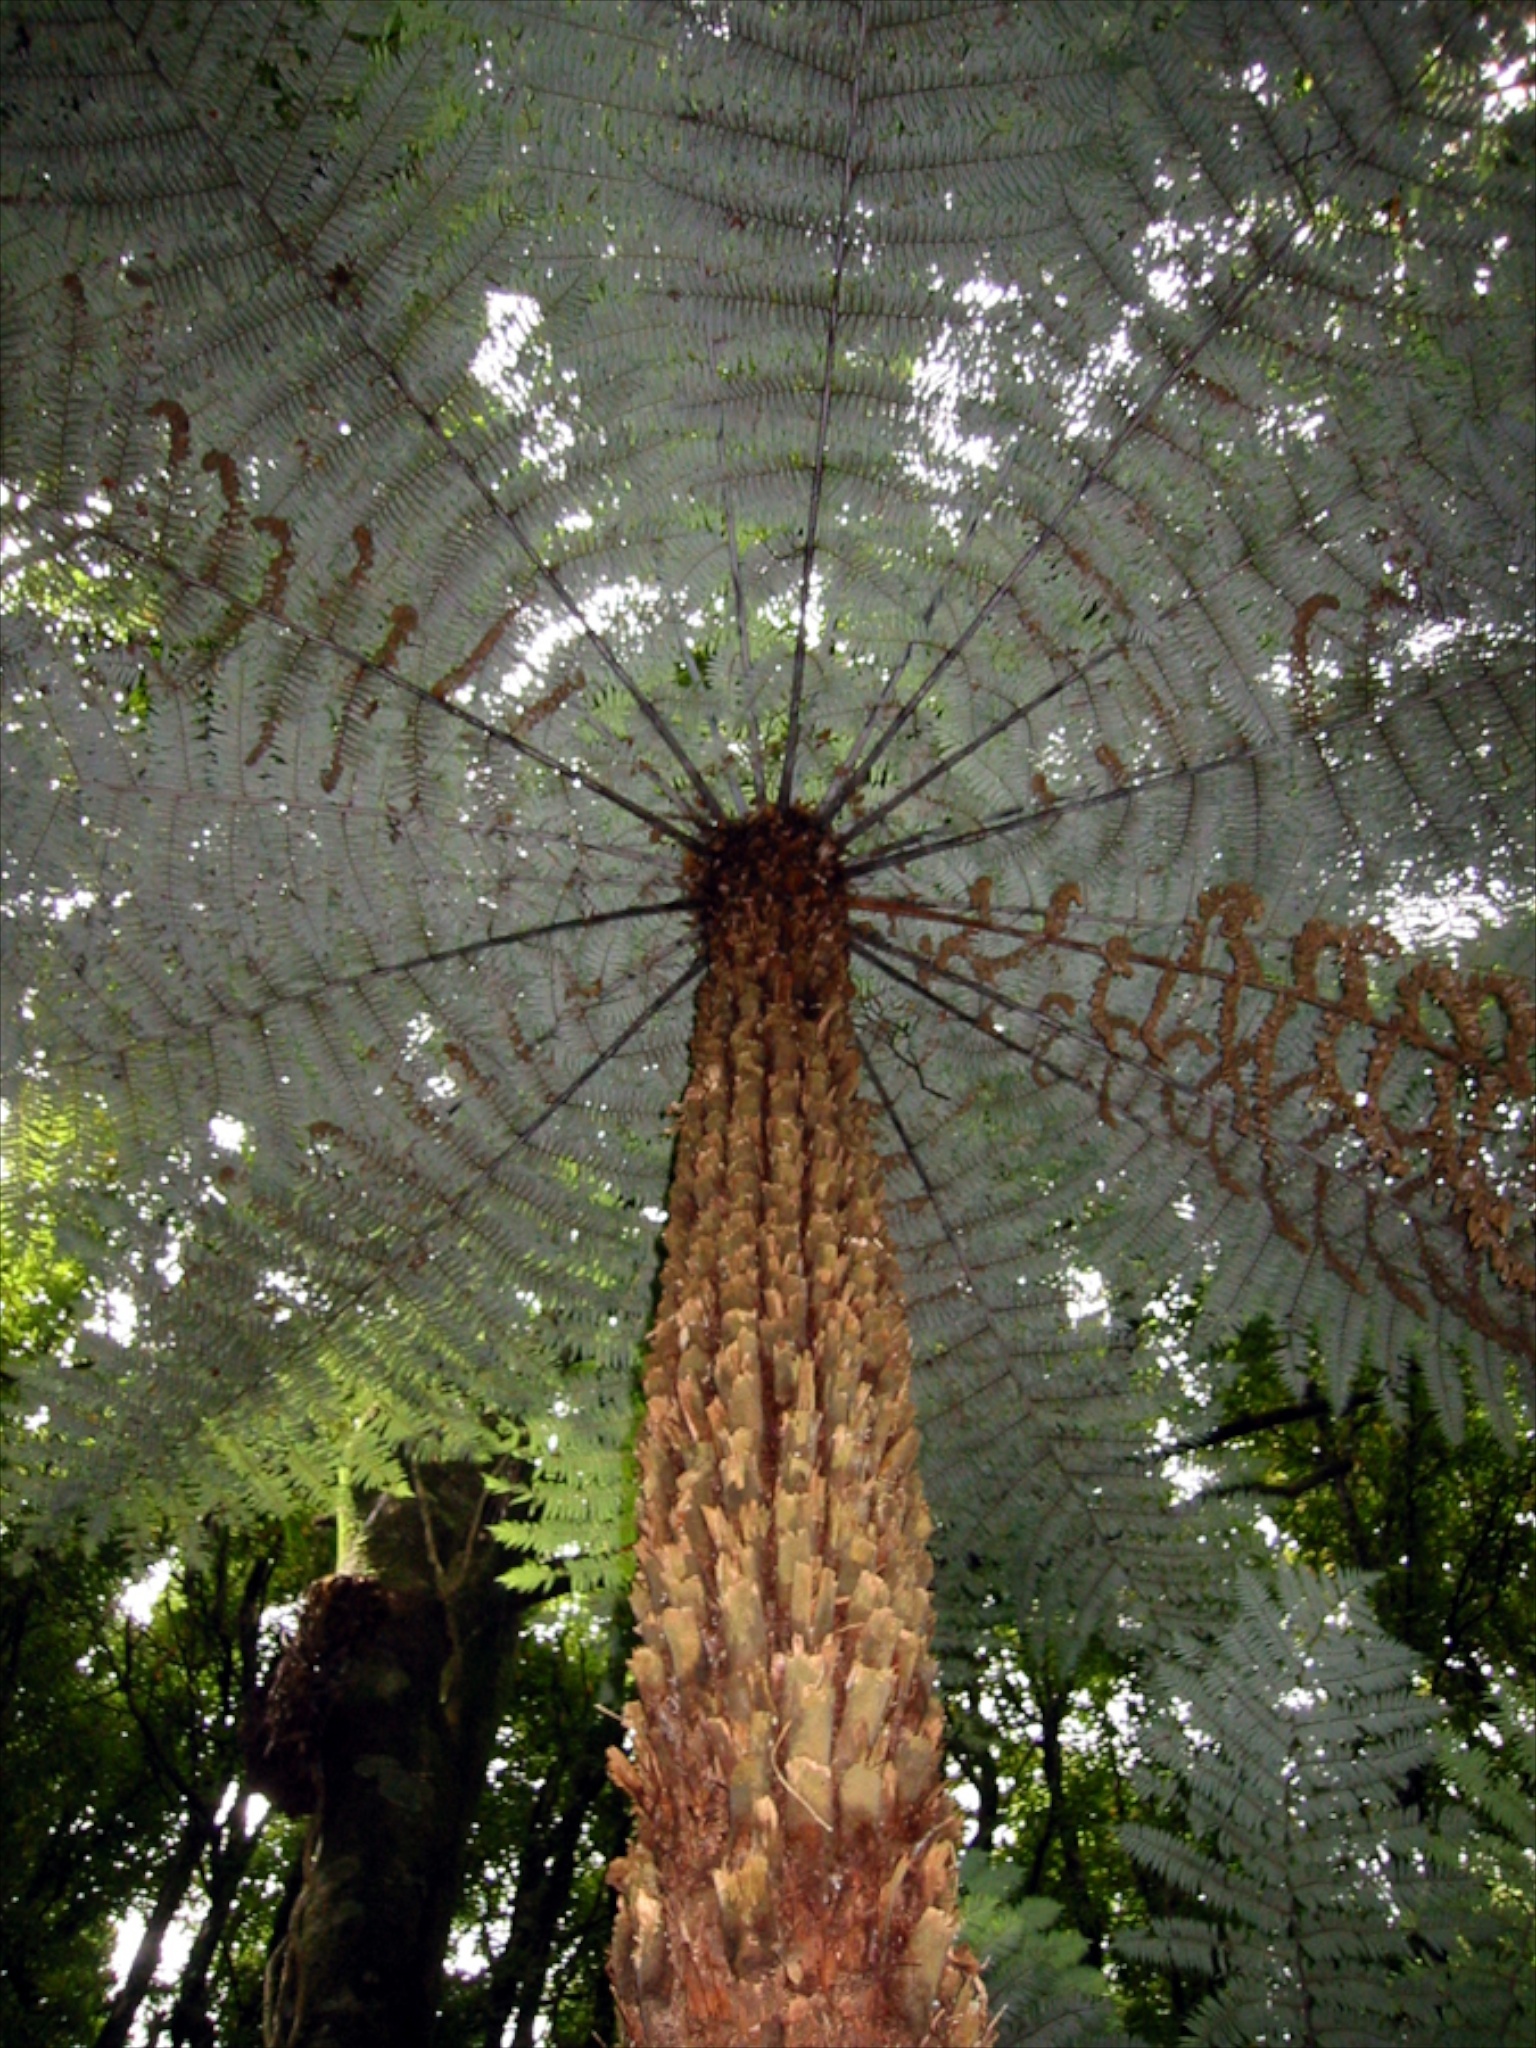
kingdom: Plantae
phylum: Tracheophyta
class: Polypodiopsida
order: Cyatheales
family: Cyatheaceae
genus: Alsophila
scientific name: Alsophila dealbata
